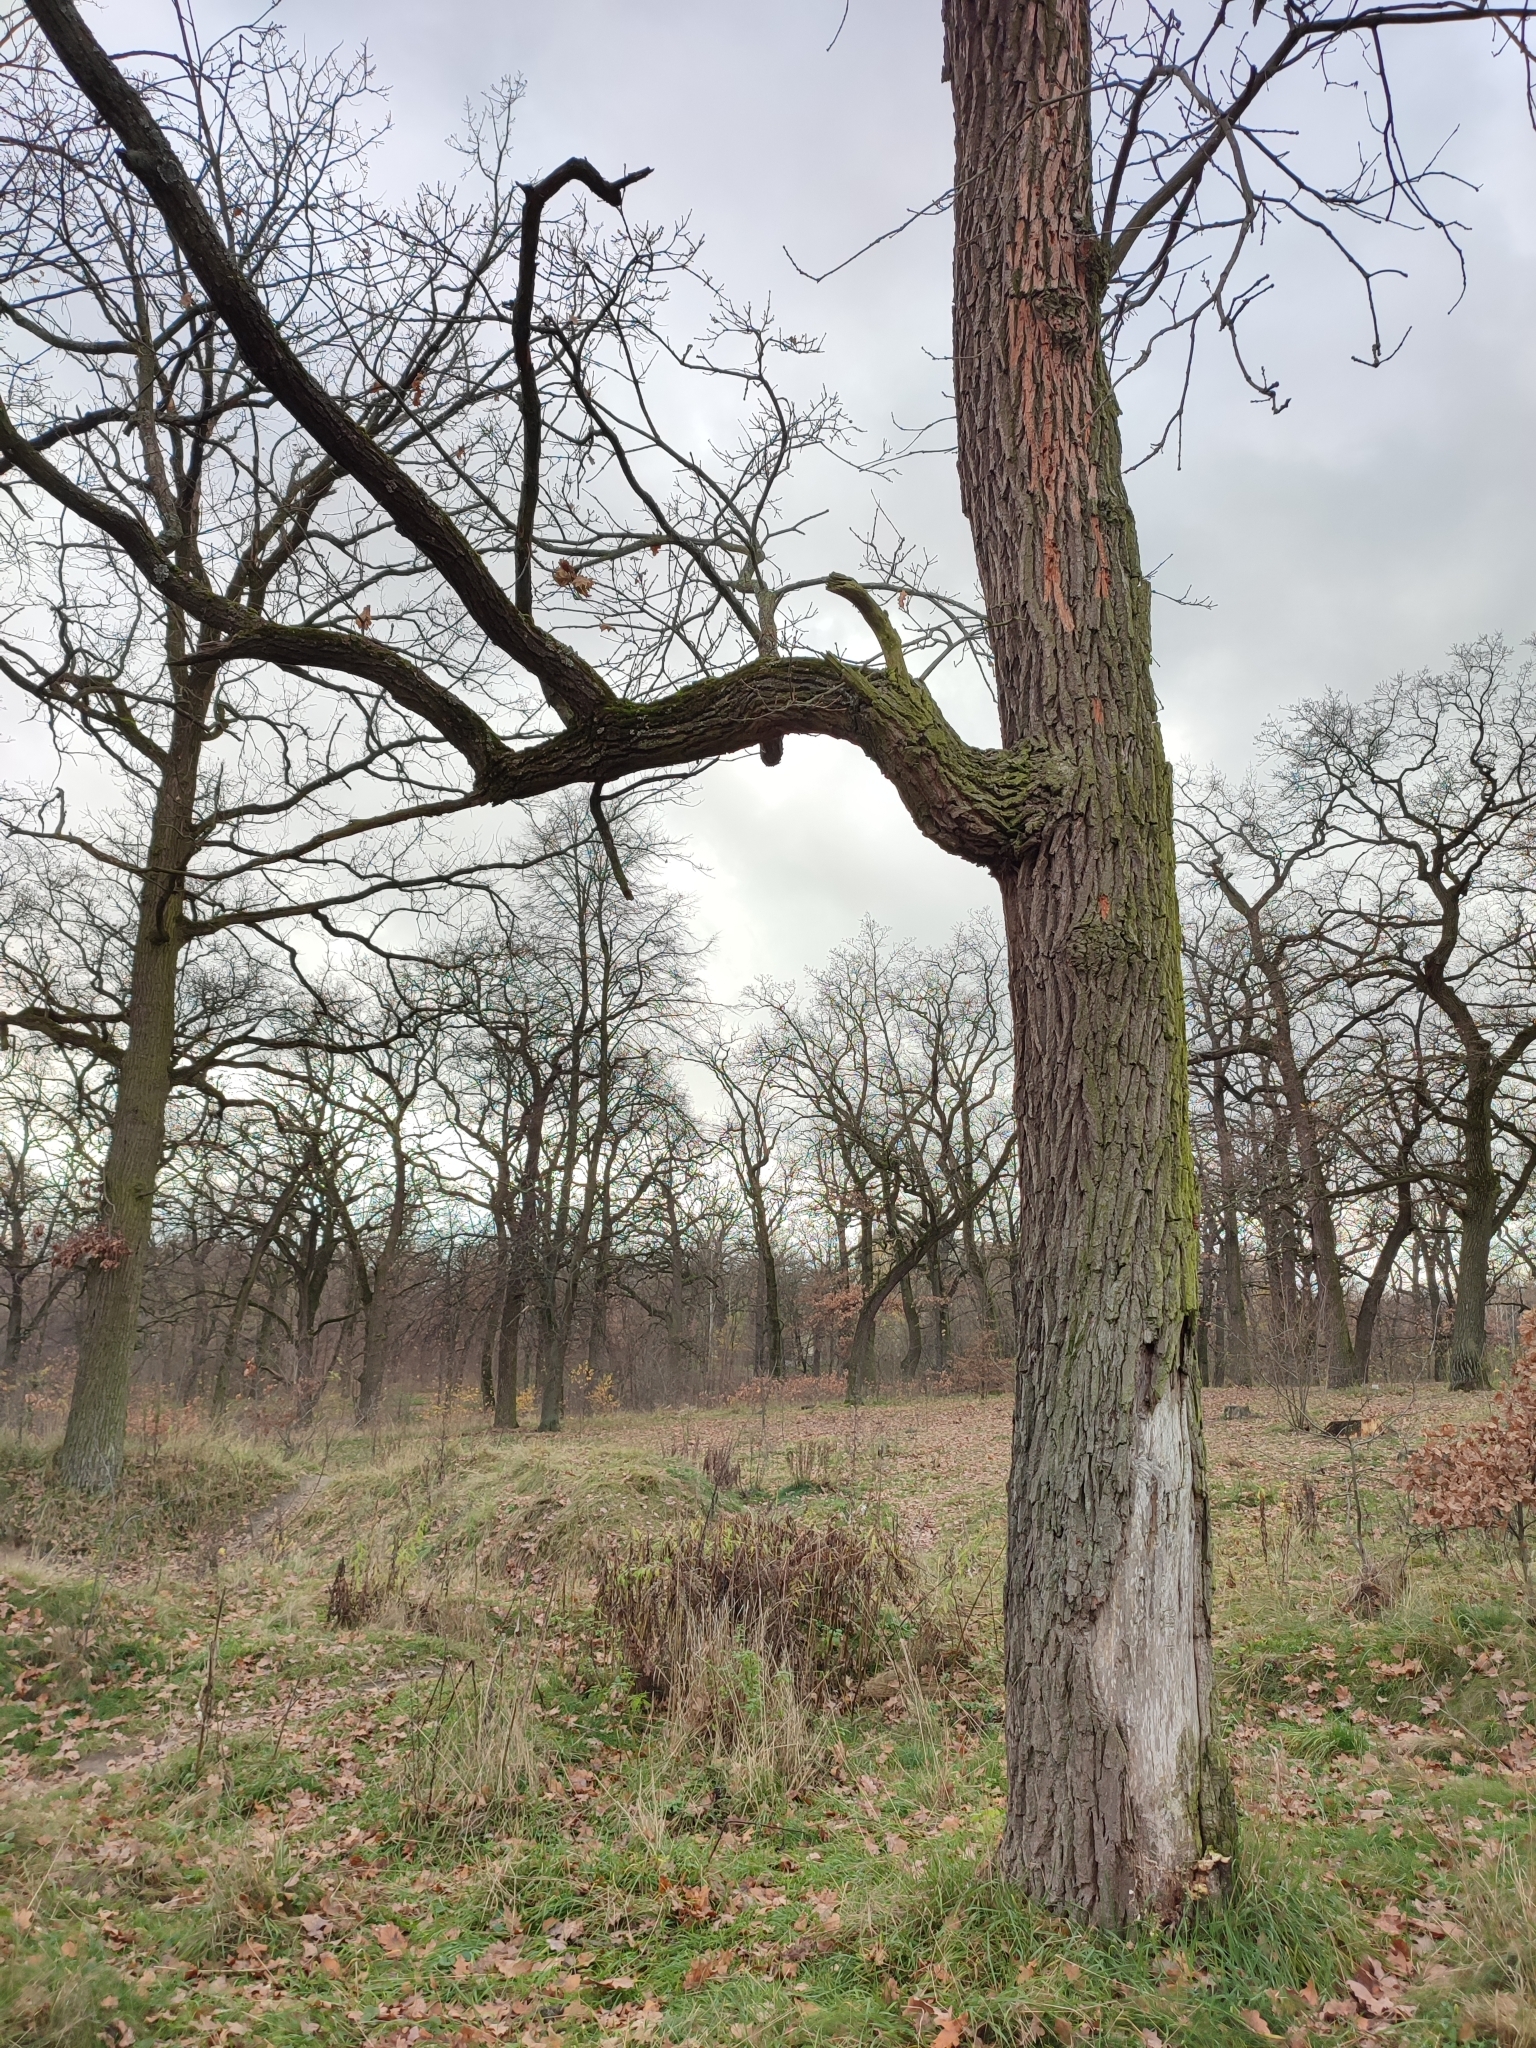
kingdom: Plantae
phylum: Tracheophyta
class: Magnoliopsida
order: Fagales
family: Fagaceae
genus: Quercus
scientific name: Quercus robur
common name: Pedunculate oak
